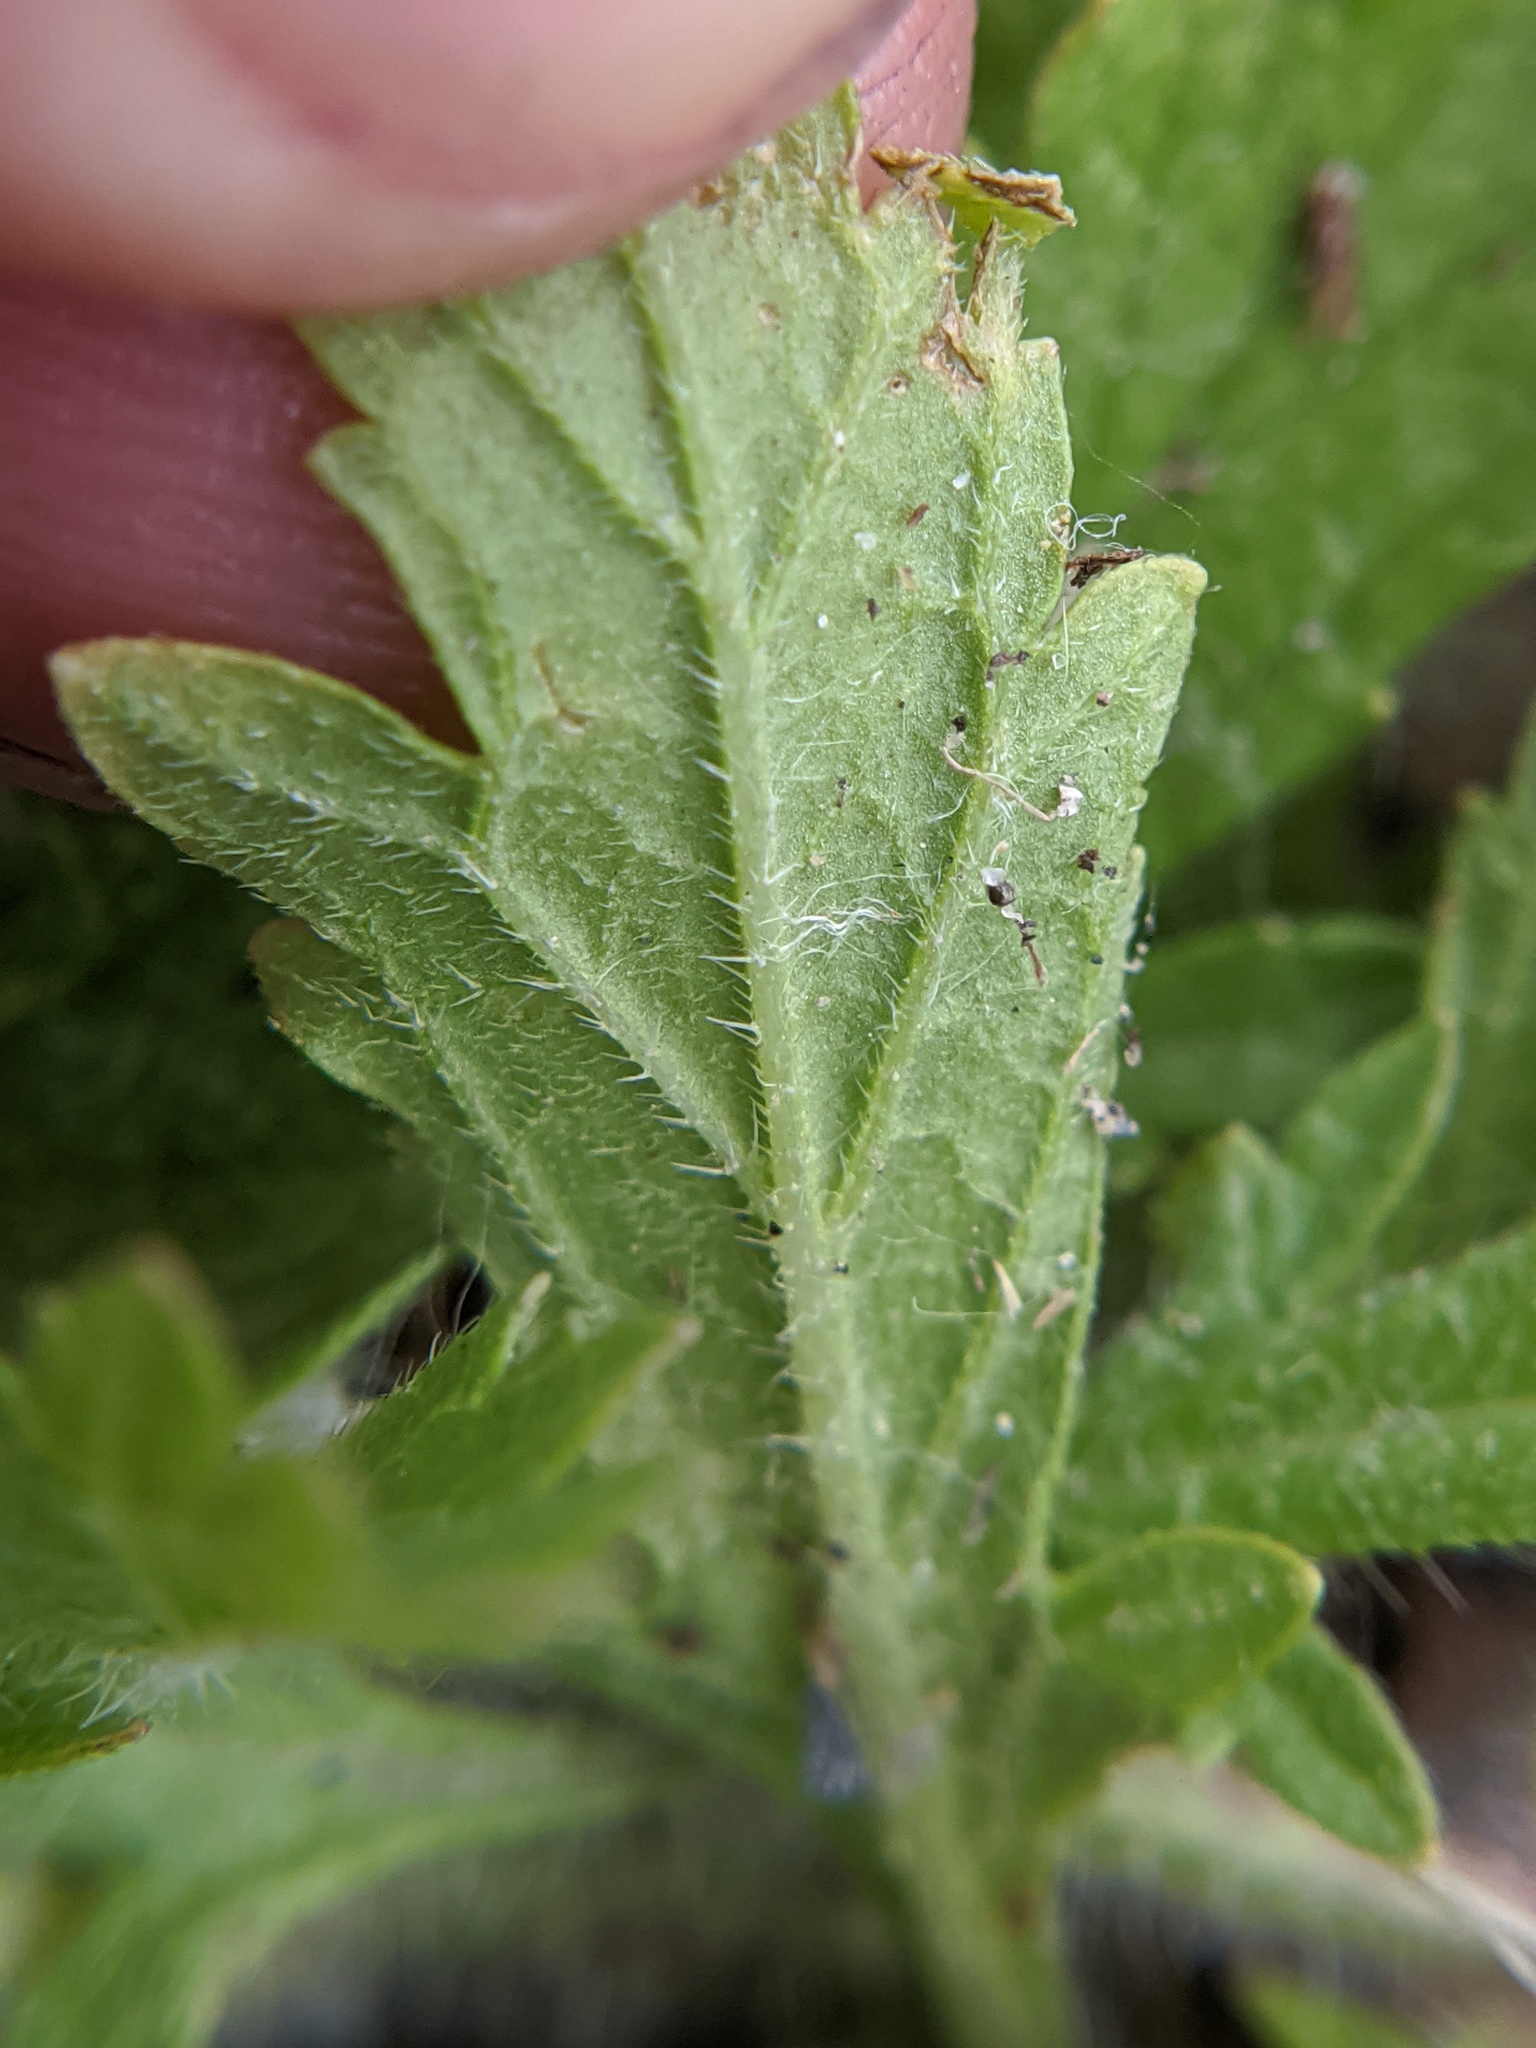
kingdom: Plantae
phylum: Tracheophyta
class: Magnoliopsida
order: Lamiales
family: Verbenaceae
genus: Verbena
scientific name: Verbena bracteata
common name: Bracted vervain
